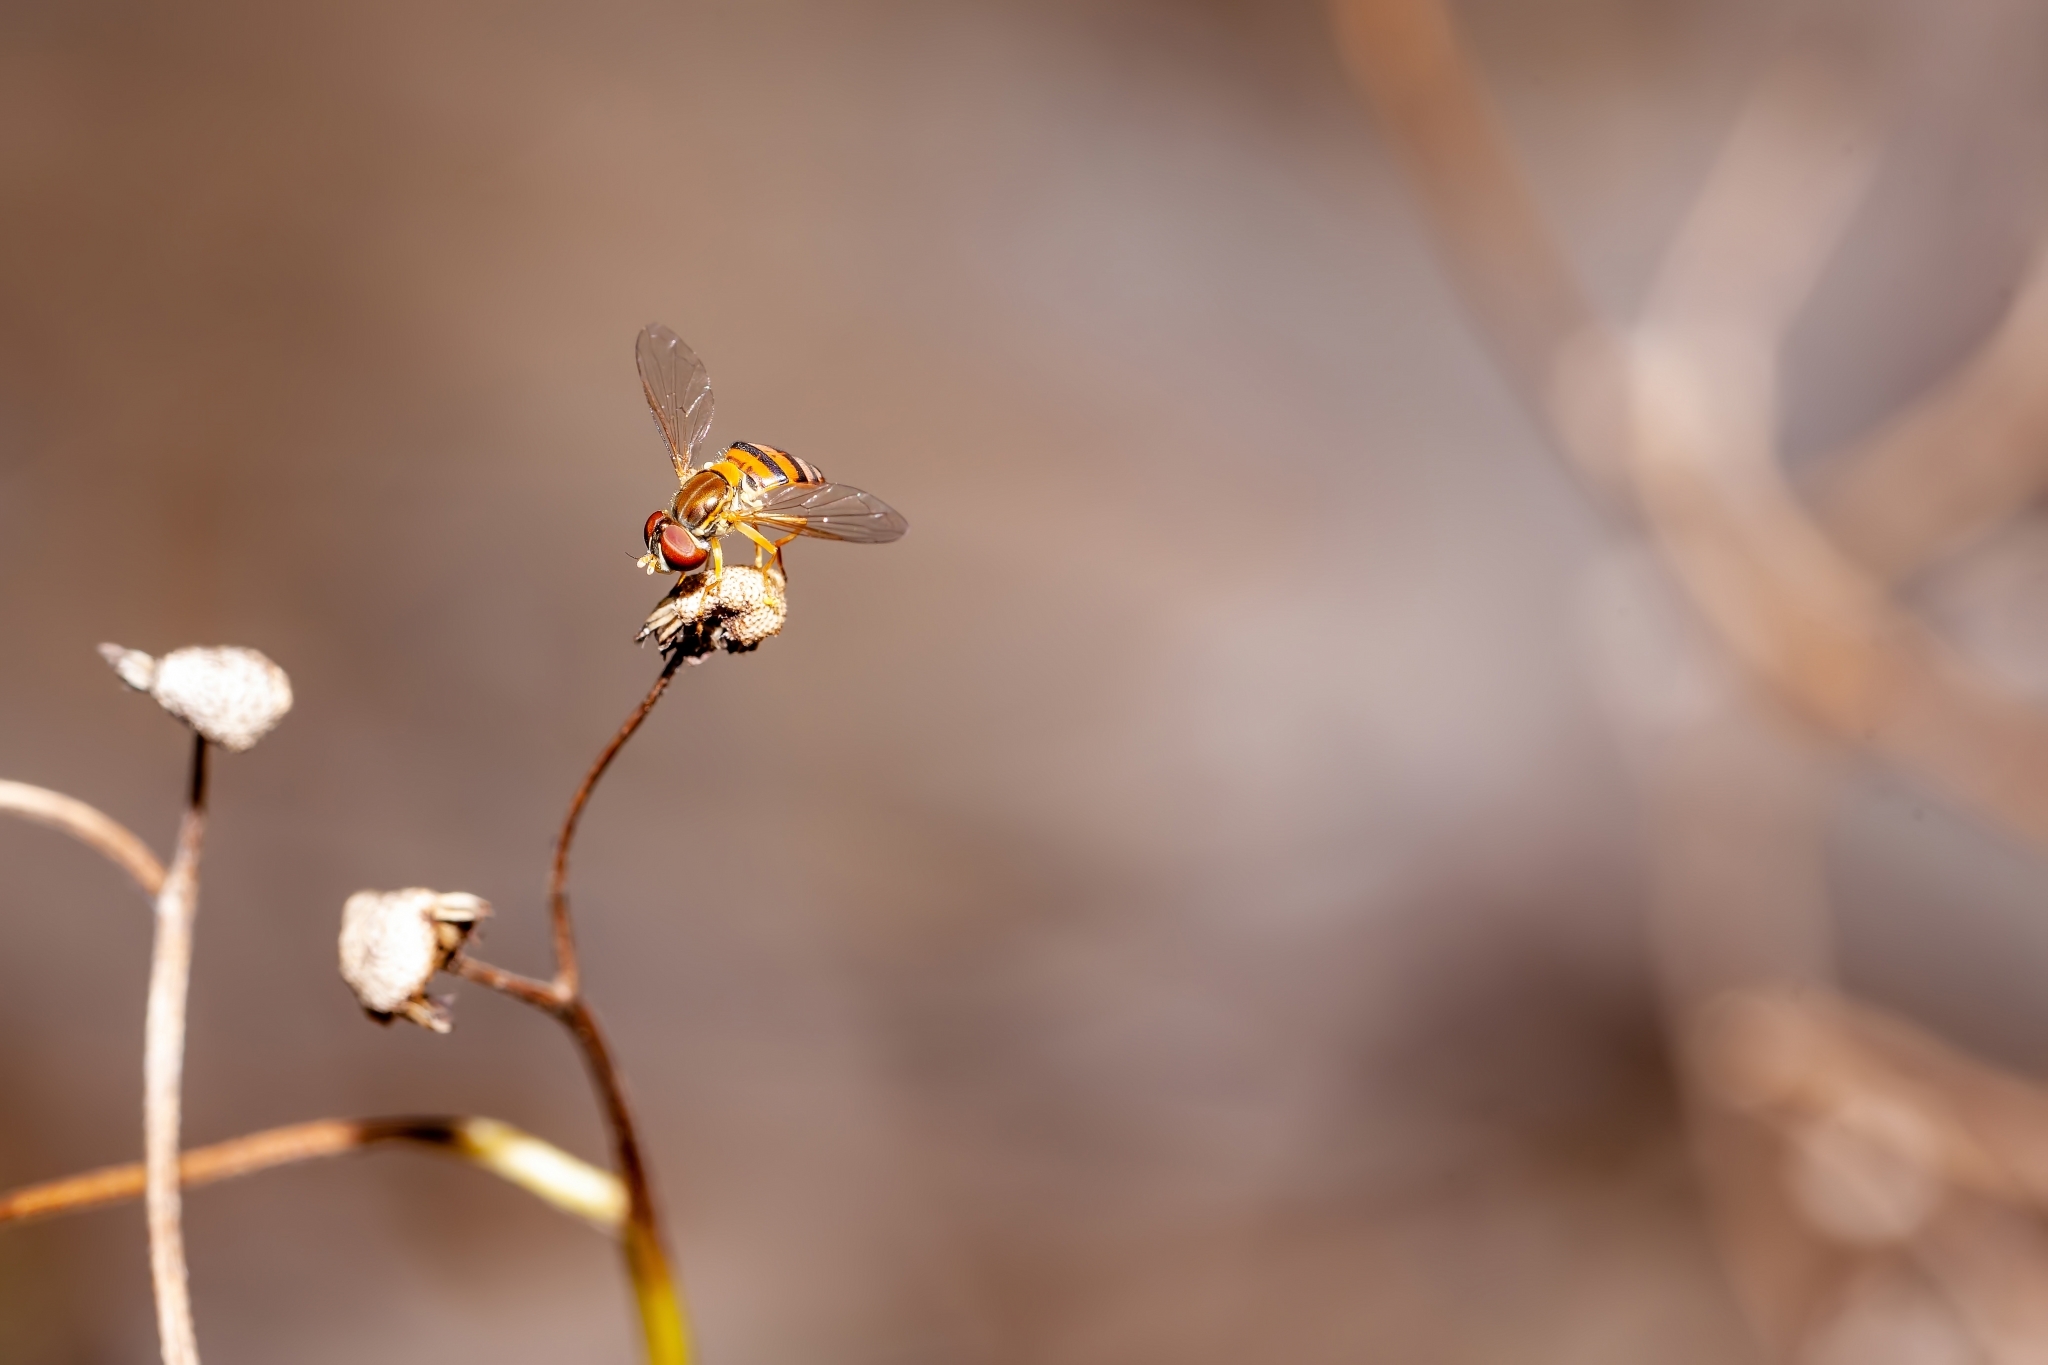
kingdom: Animalia
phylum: Arthropoda
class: Insecta
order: Diptera
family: Syrphidae
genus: Toxomerus
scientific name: Toxomerus corbis
